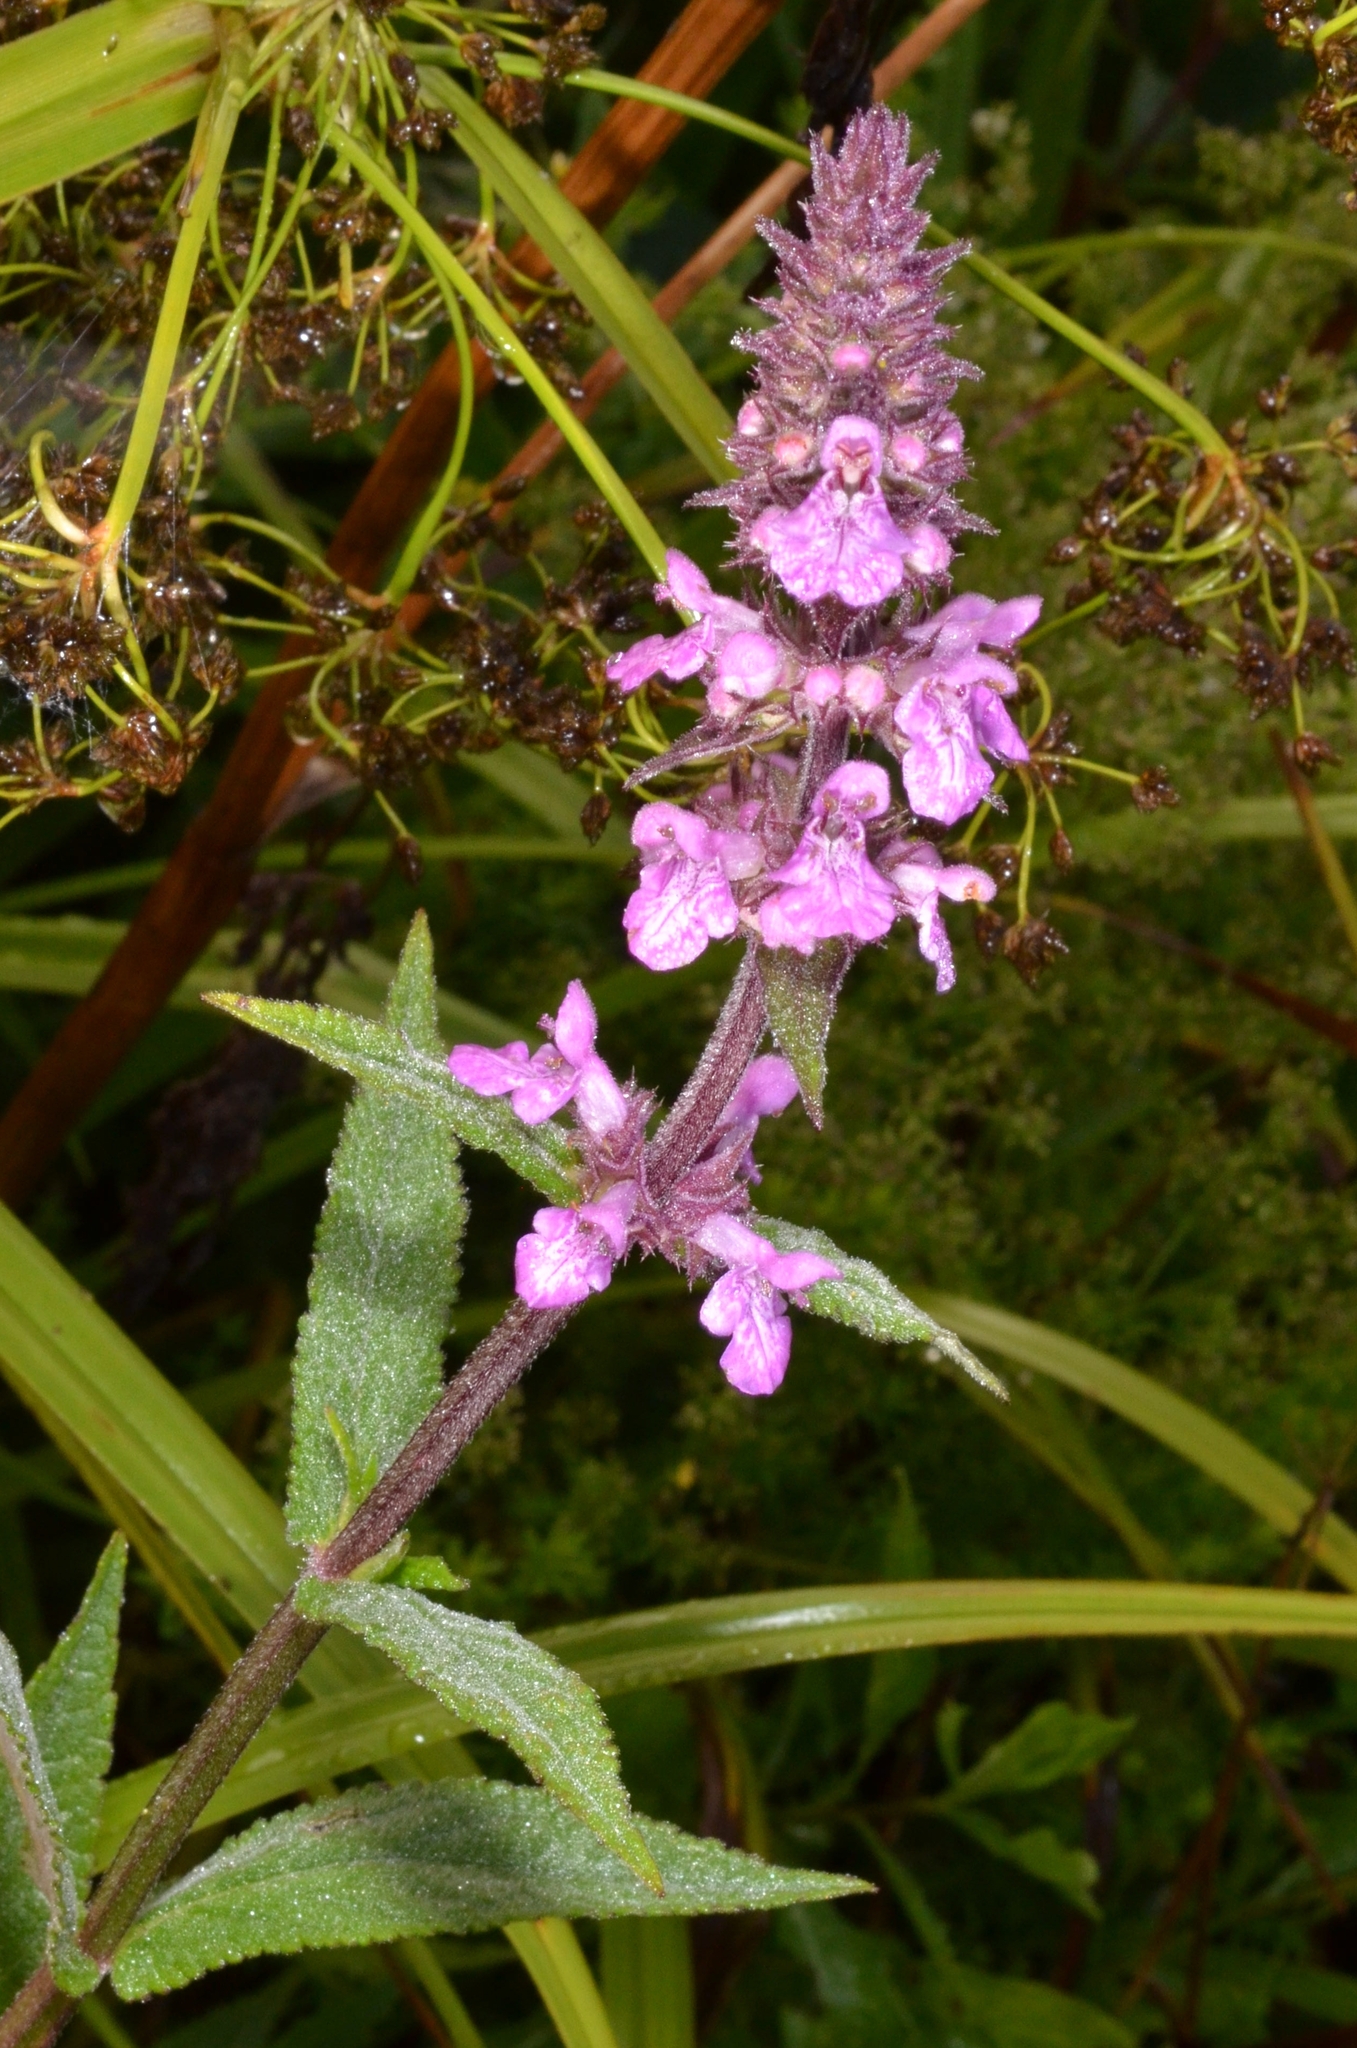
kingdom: Plantae
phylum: Tracheophyta
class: Magnoliopsida
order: Lamiales
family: Lamiaceae
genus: Stachys
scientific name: Stachys palustris
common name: Marsh woundwort
